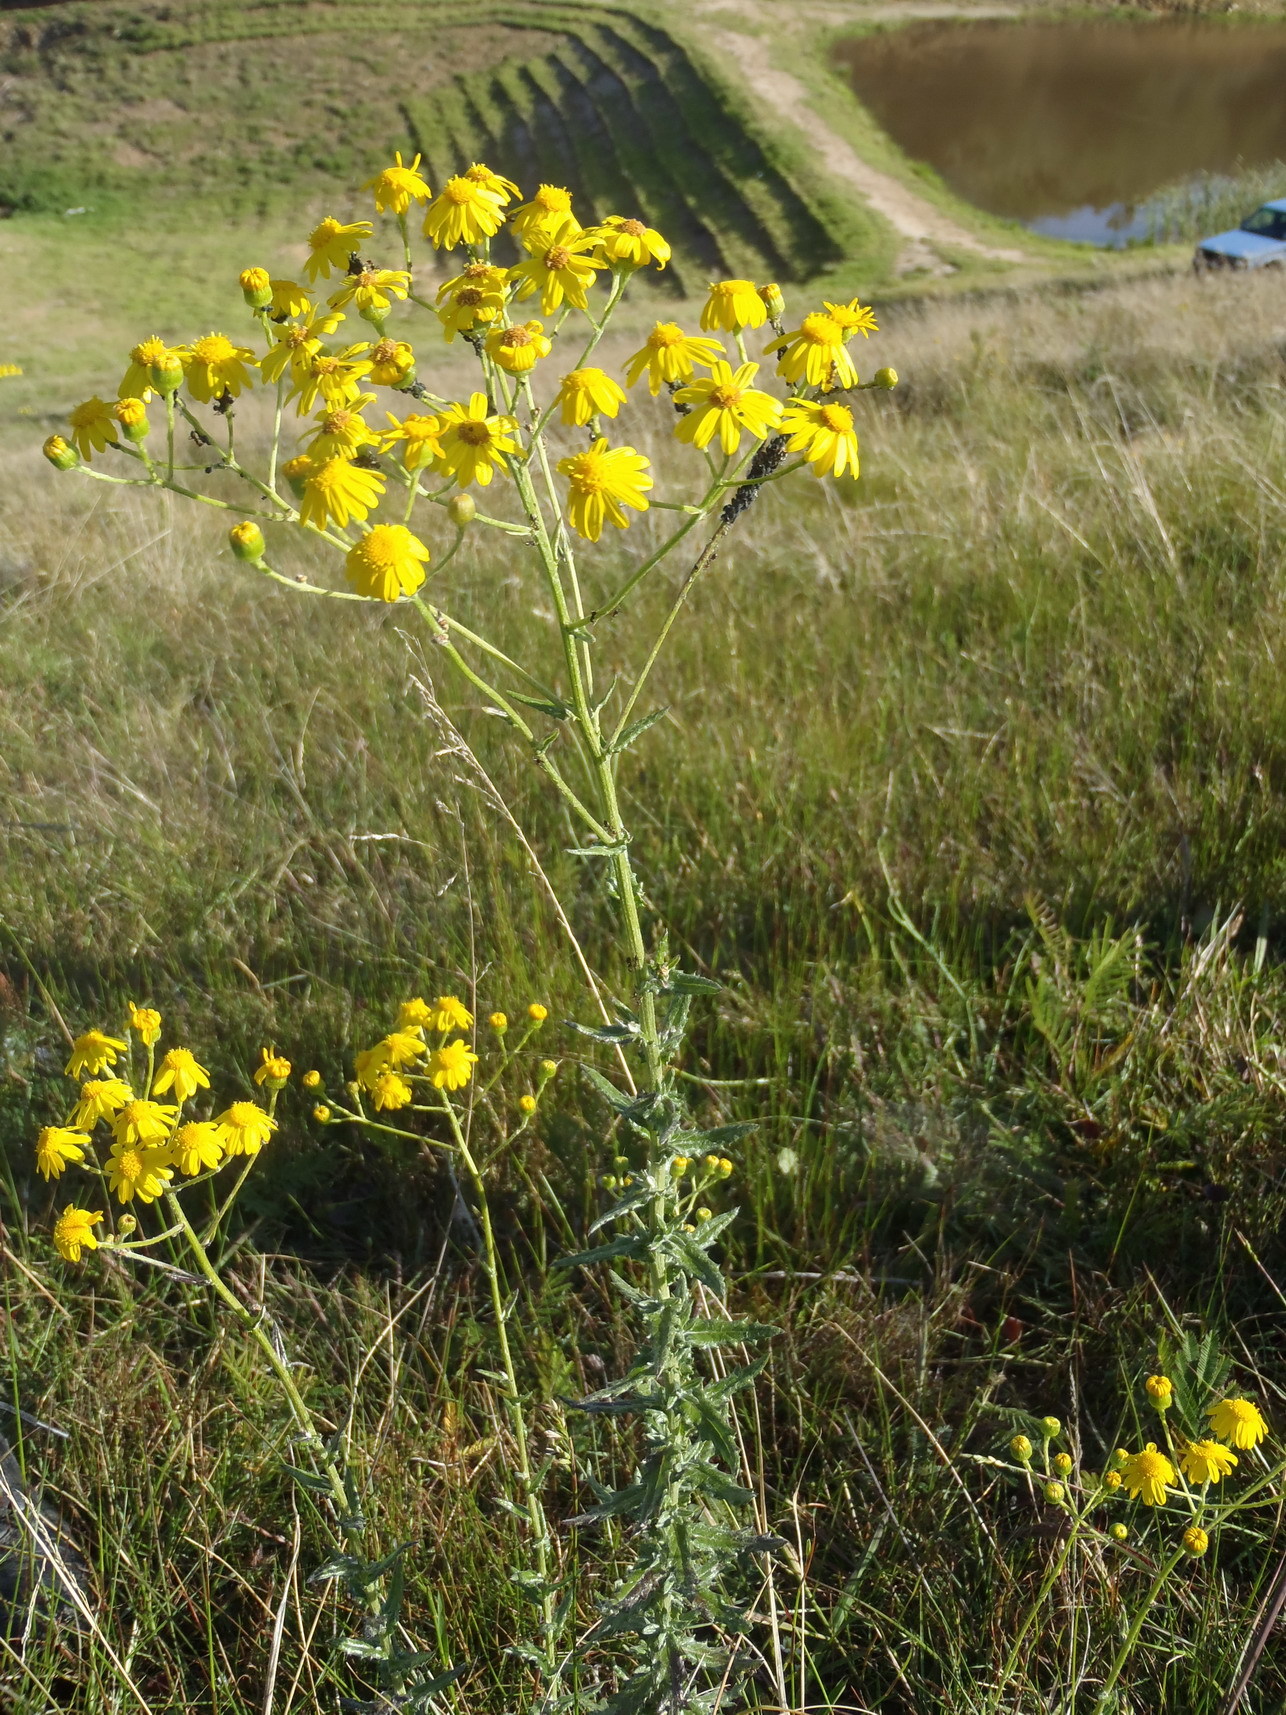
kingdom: Plantae
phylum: Tracheophyta
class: Magnoliopsida
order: Asterales
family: Asteraceae
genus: Senecio
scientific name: Senecio ilicifolius
